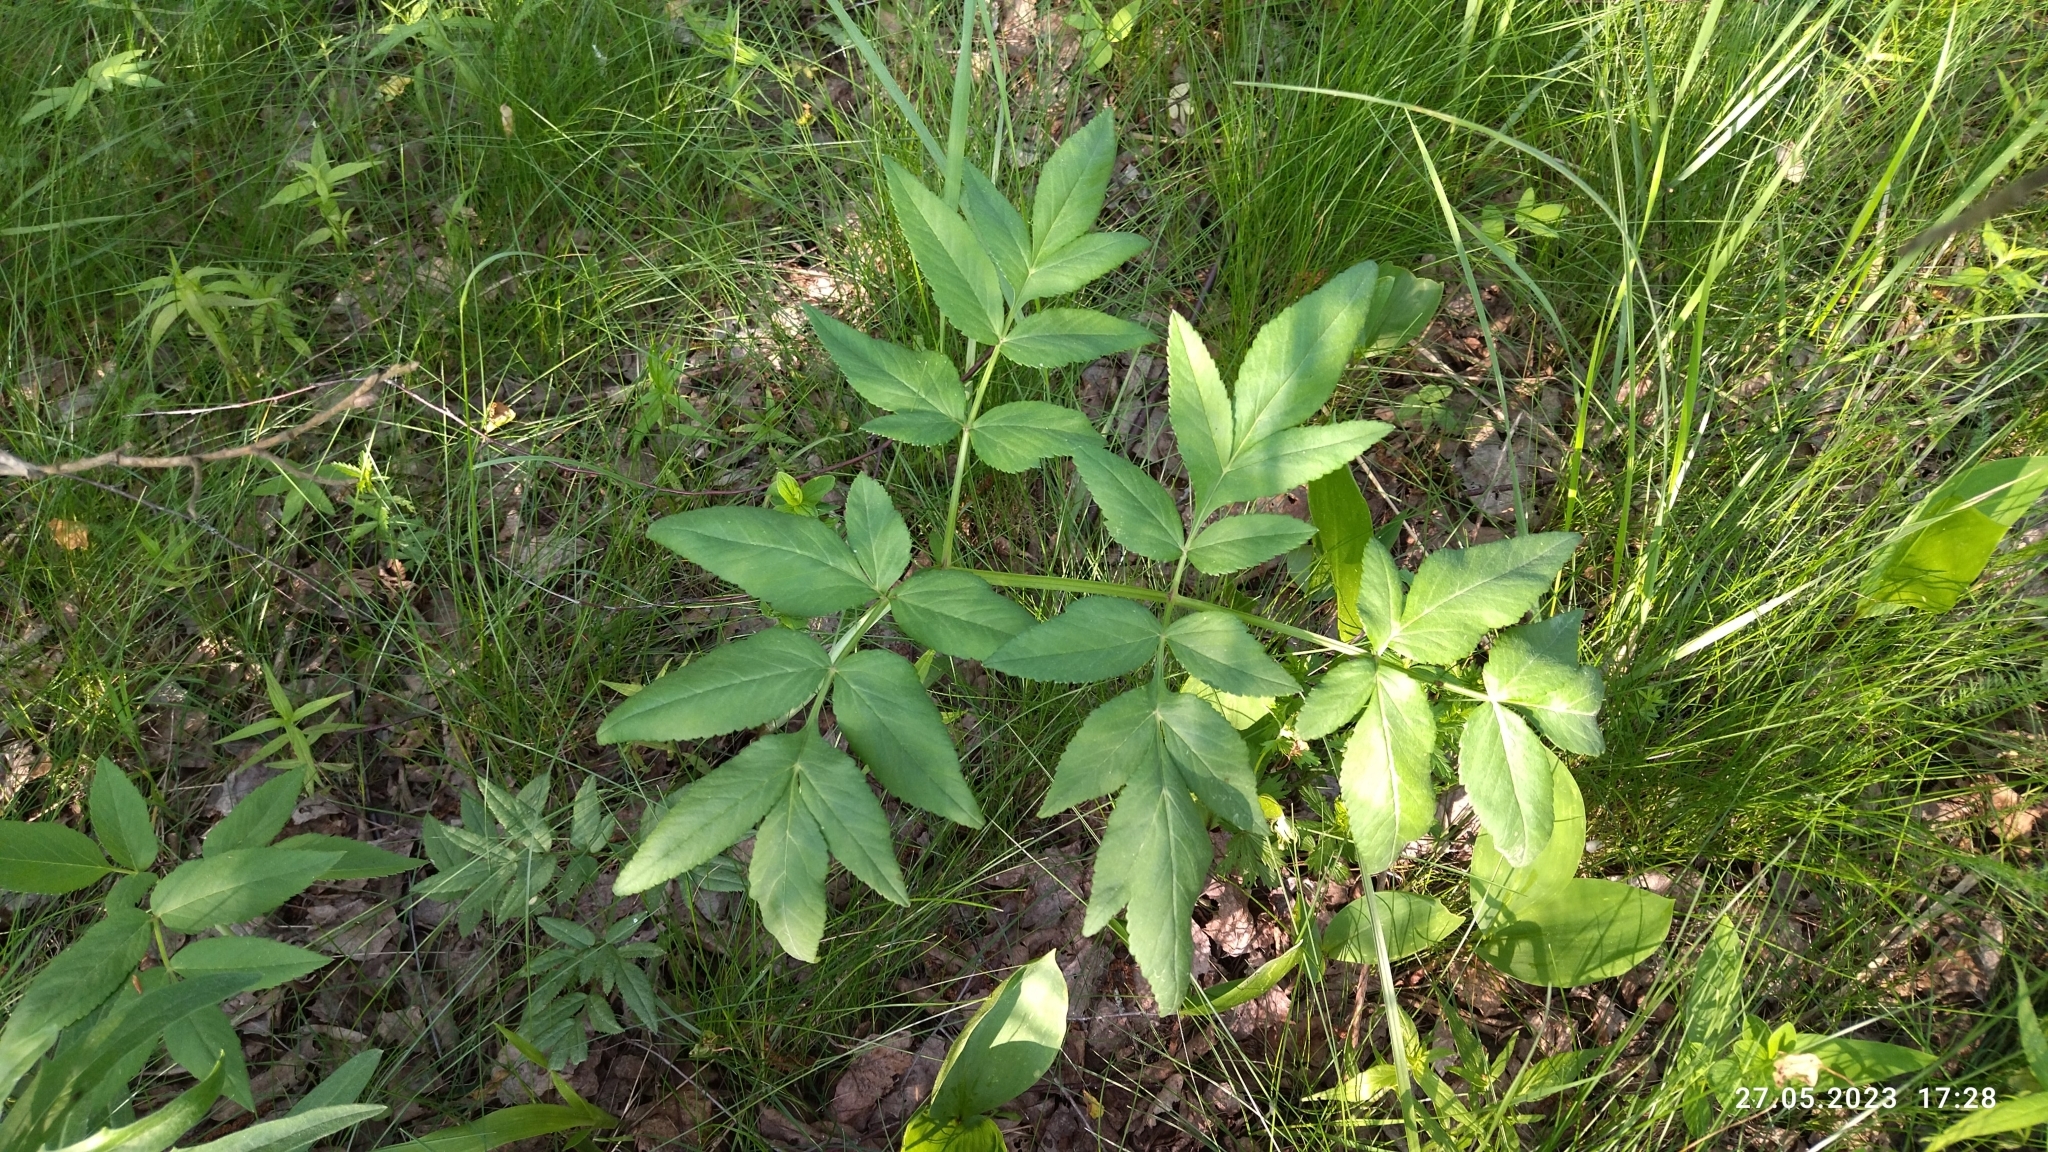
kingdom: Plantae
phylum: Tracheophyta
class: Magnoliopsida
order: Apiales
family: Apiaceae
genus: Angelica
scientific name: Angelica sylvestris
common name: Wild angelica
